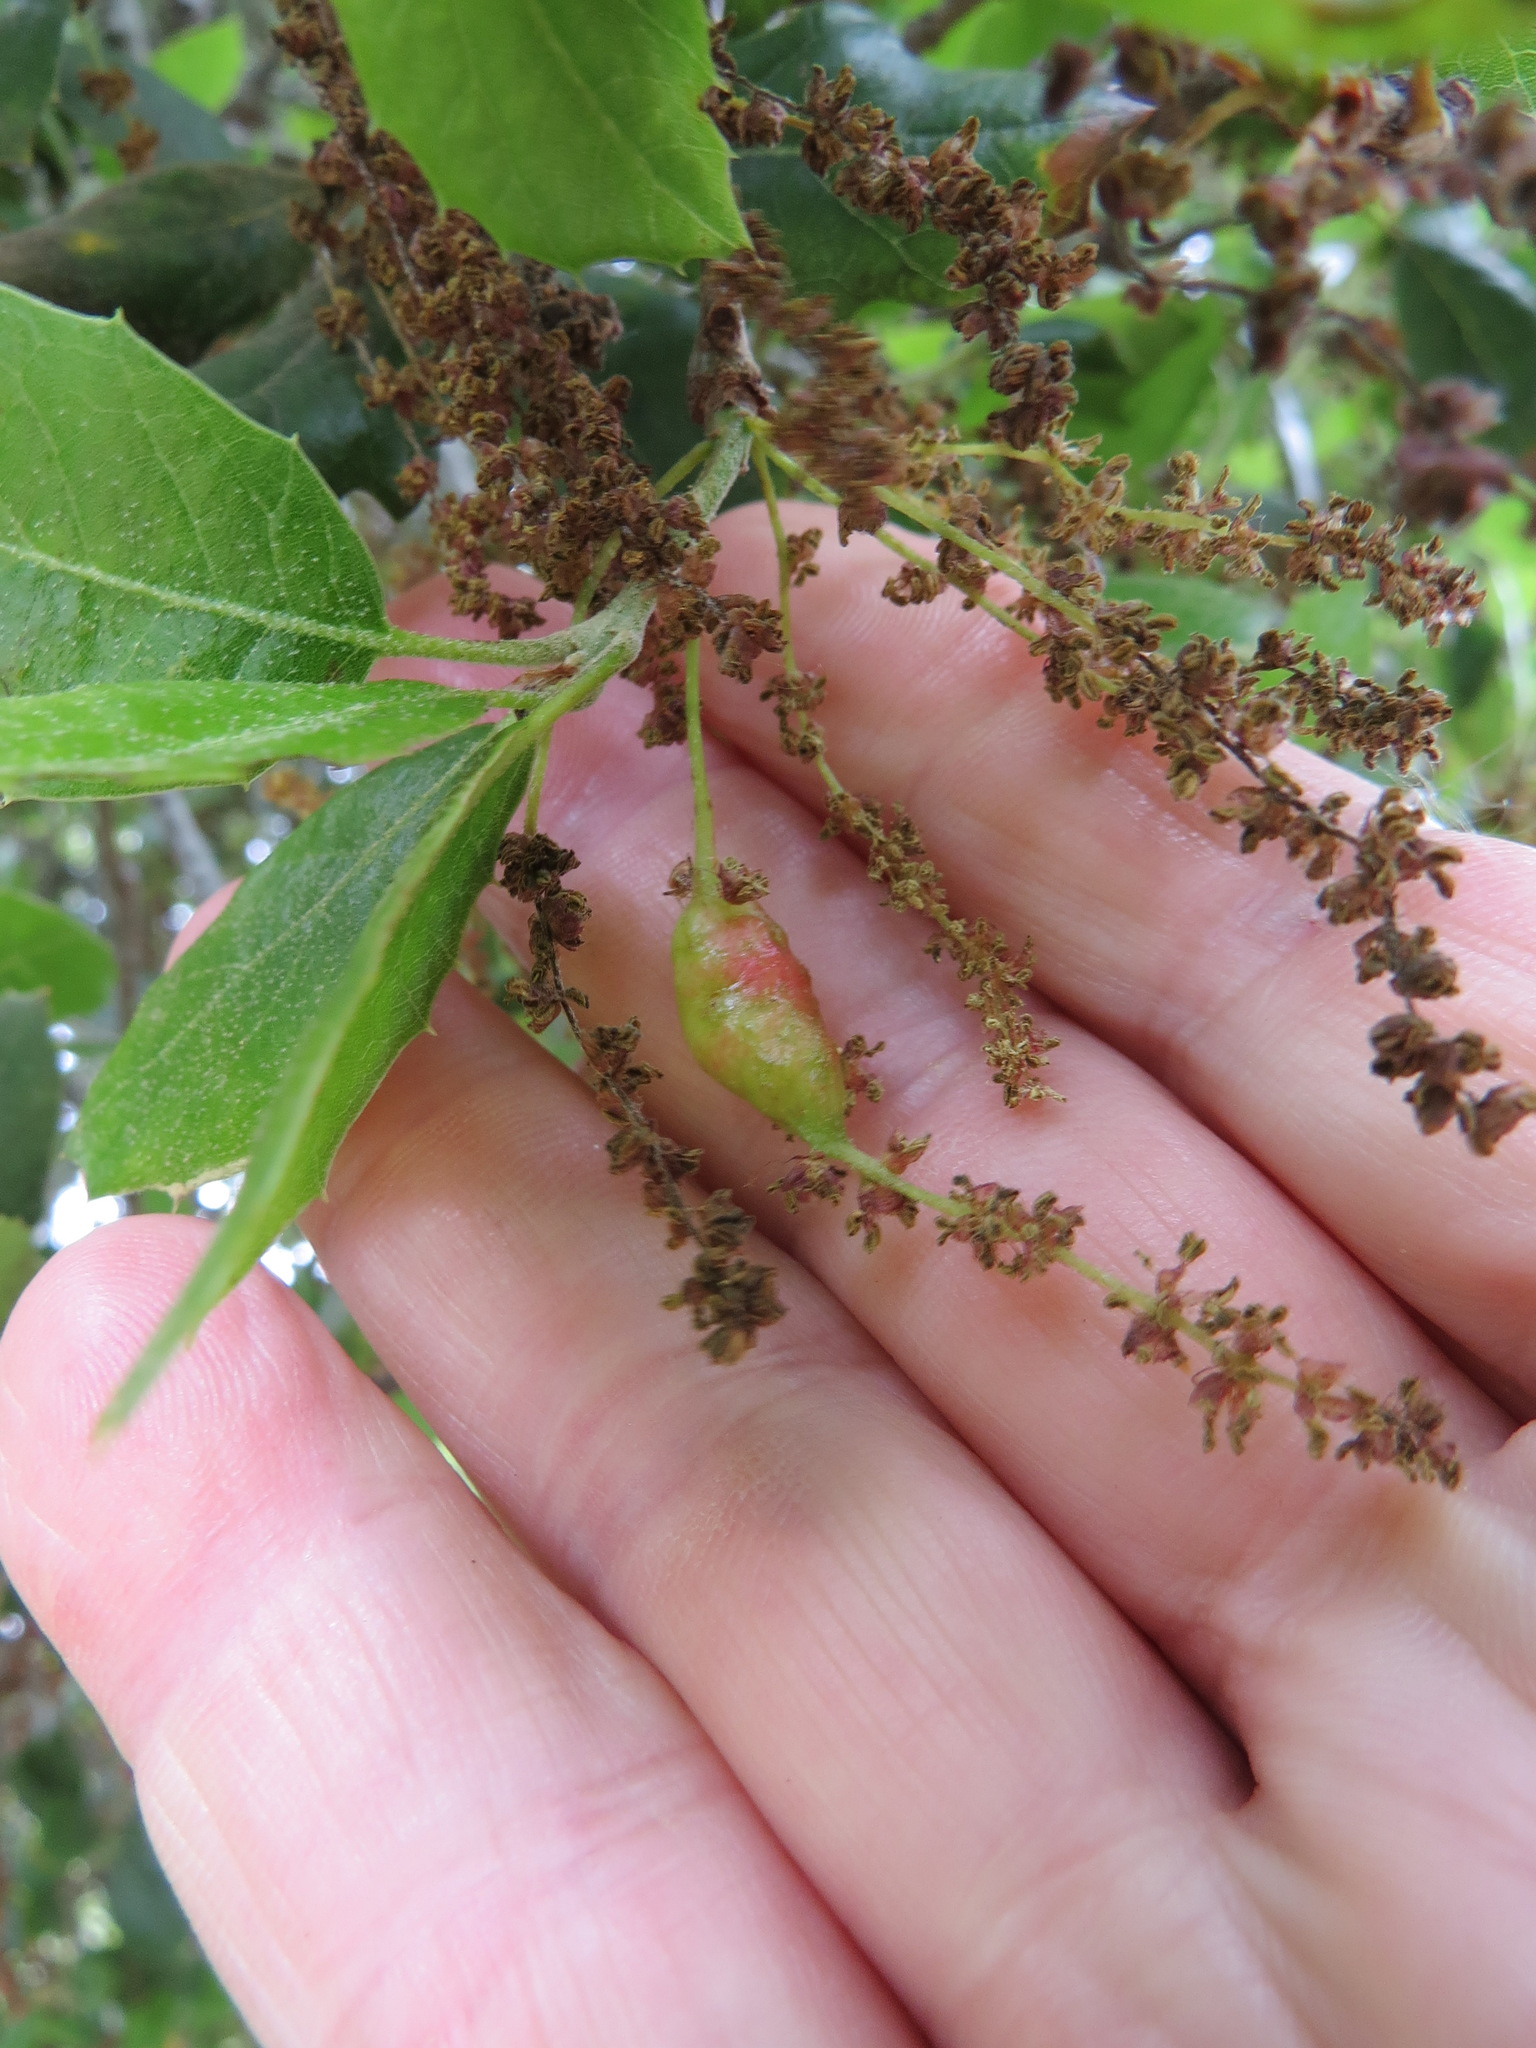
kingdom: Animalia
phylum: Arthropoda
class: Insecta
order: Hymenoptera
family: Cynipidae
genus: Callirhytis
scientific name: Callirhytis
